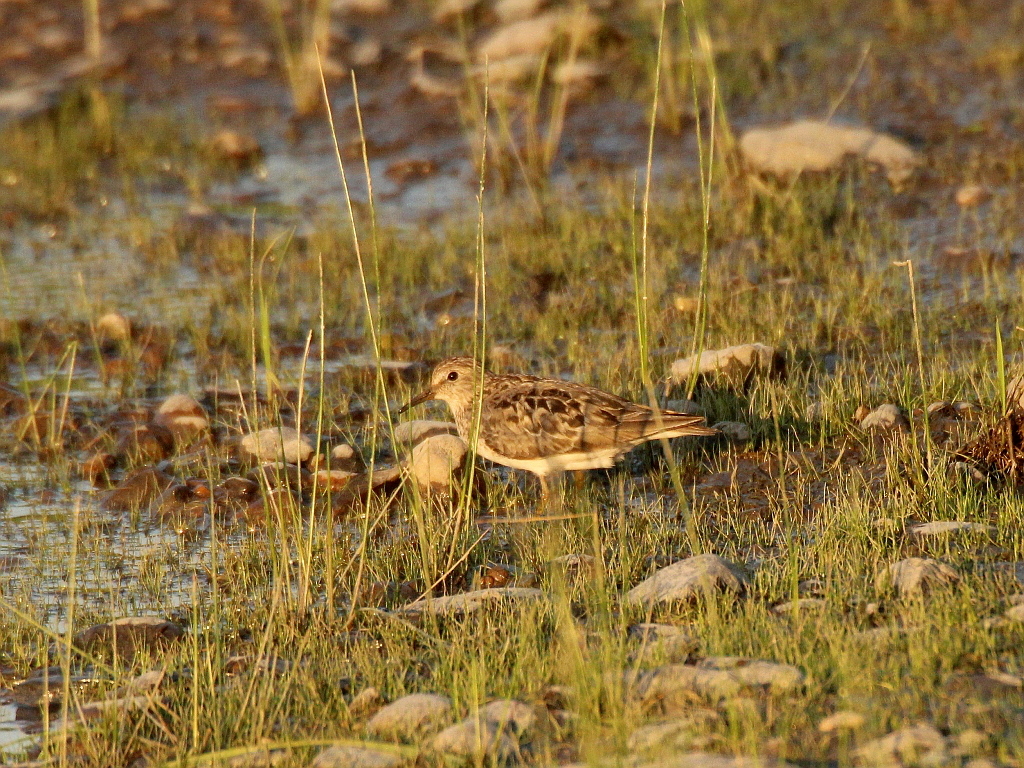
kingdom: Animalia
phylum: Chordata
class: Aves
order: Charadriiformes
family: Scolopacidae
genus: Calidris
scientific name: Calidris temminckii
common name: Temminck's stint
